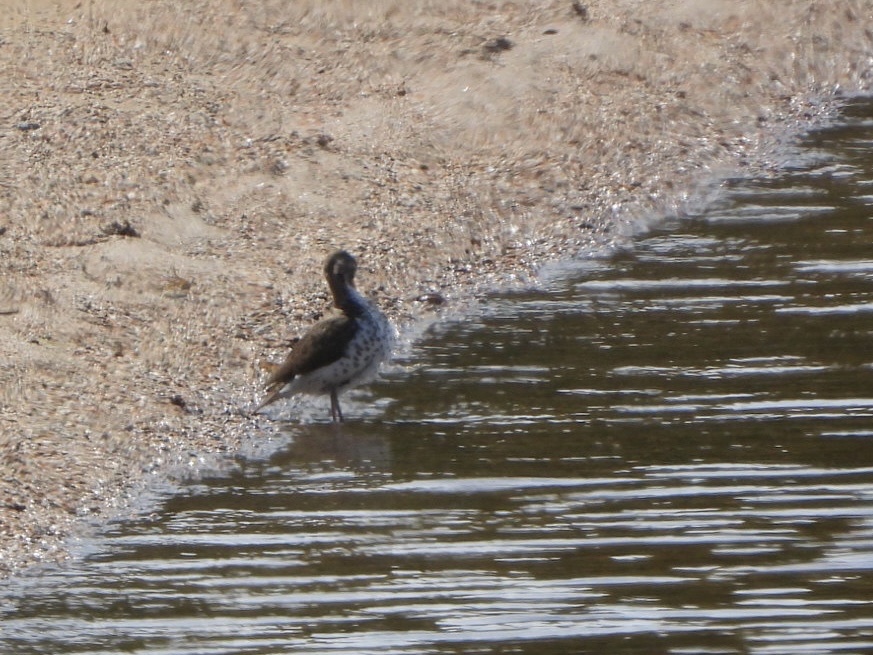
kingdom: Animalia
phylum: Chordata
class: Aves
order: Charadriiformes
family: Scolopacidae
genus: Actitis
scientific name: Actitis macularius
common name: Spotted sandpiper
